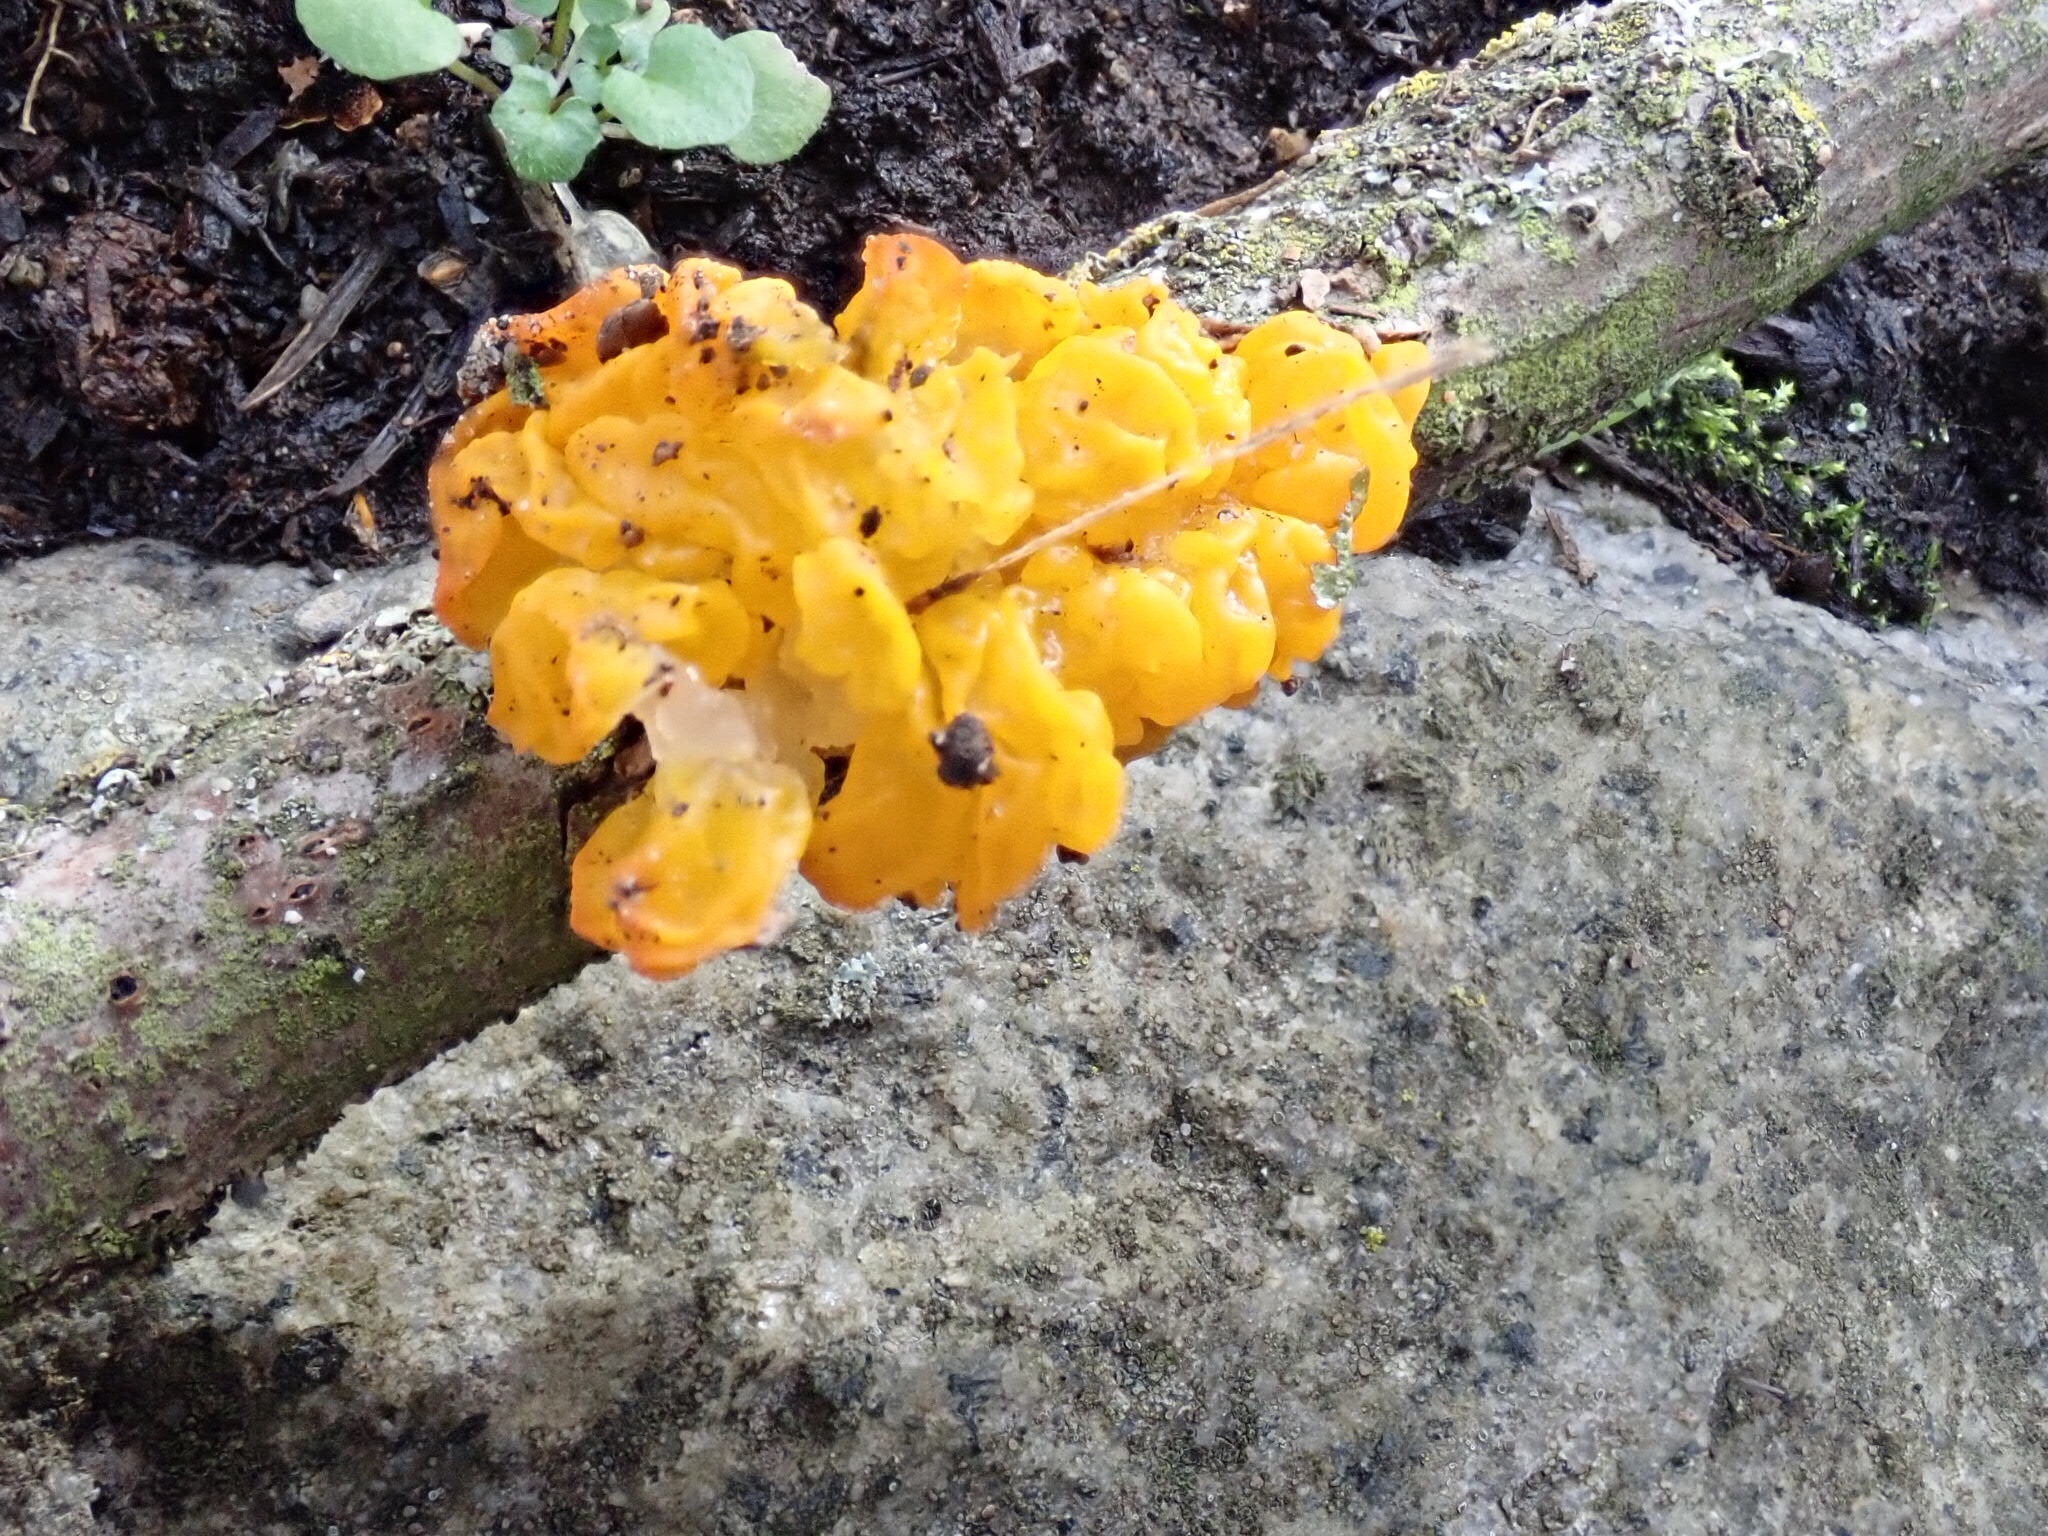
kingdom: Fungi
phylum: Basidiomycota
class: Tremellomycetes
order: Tremellales
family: Tremellaceae
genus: Tremella
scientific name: Tremella mesenterica
